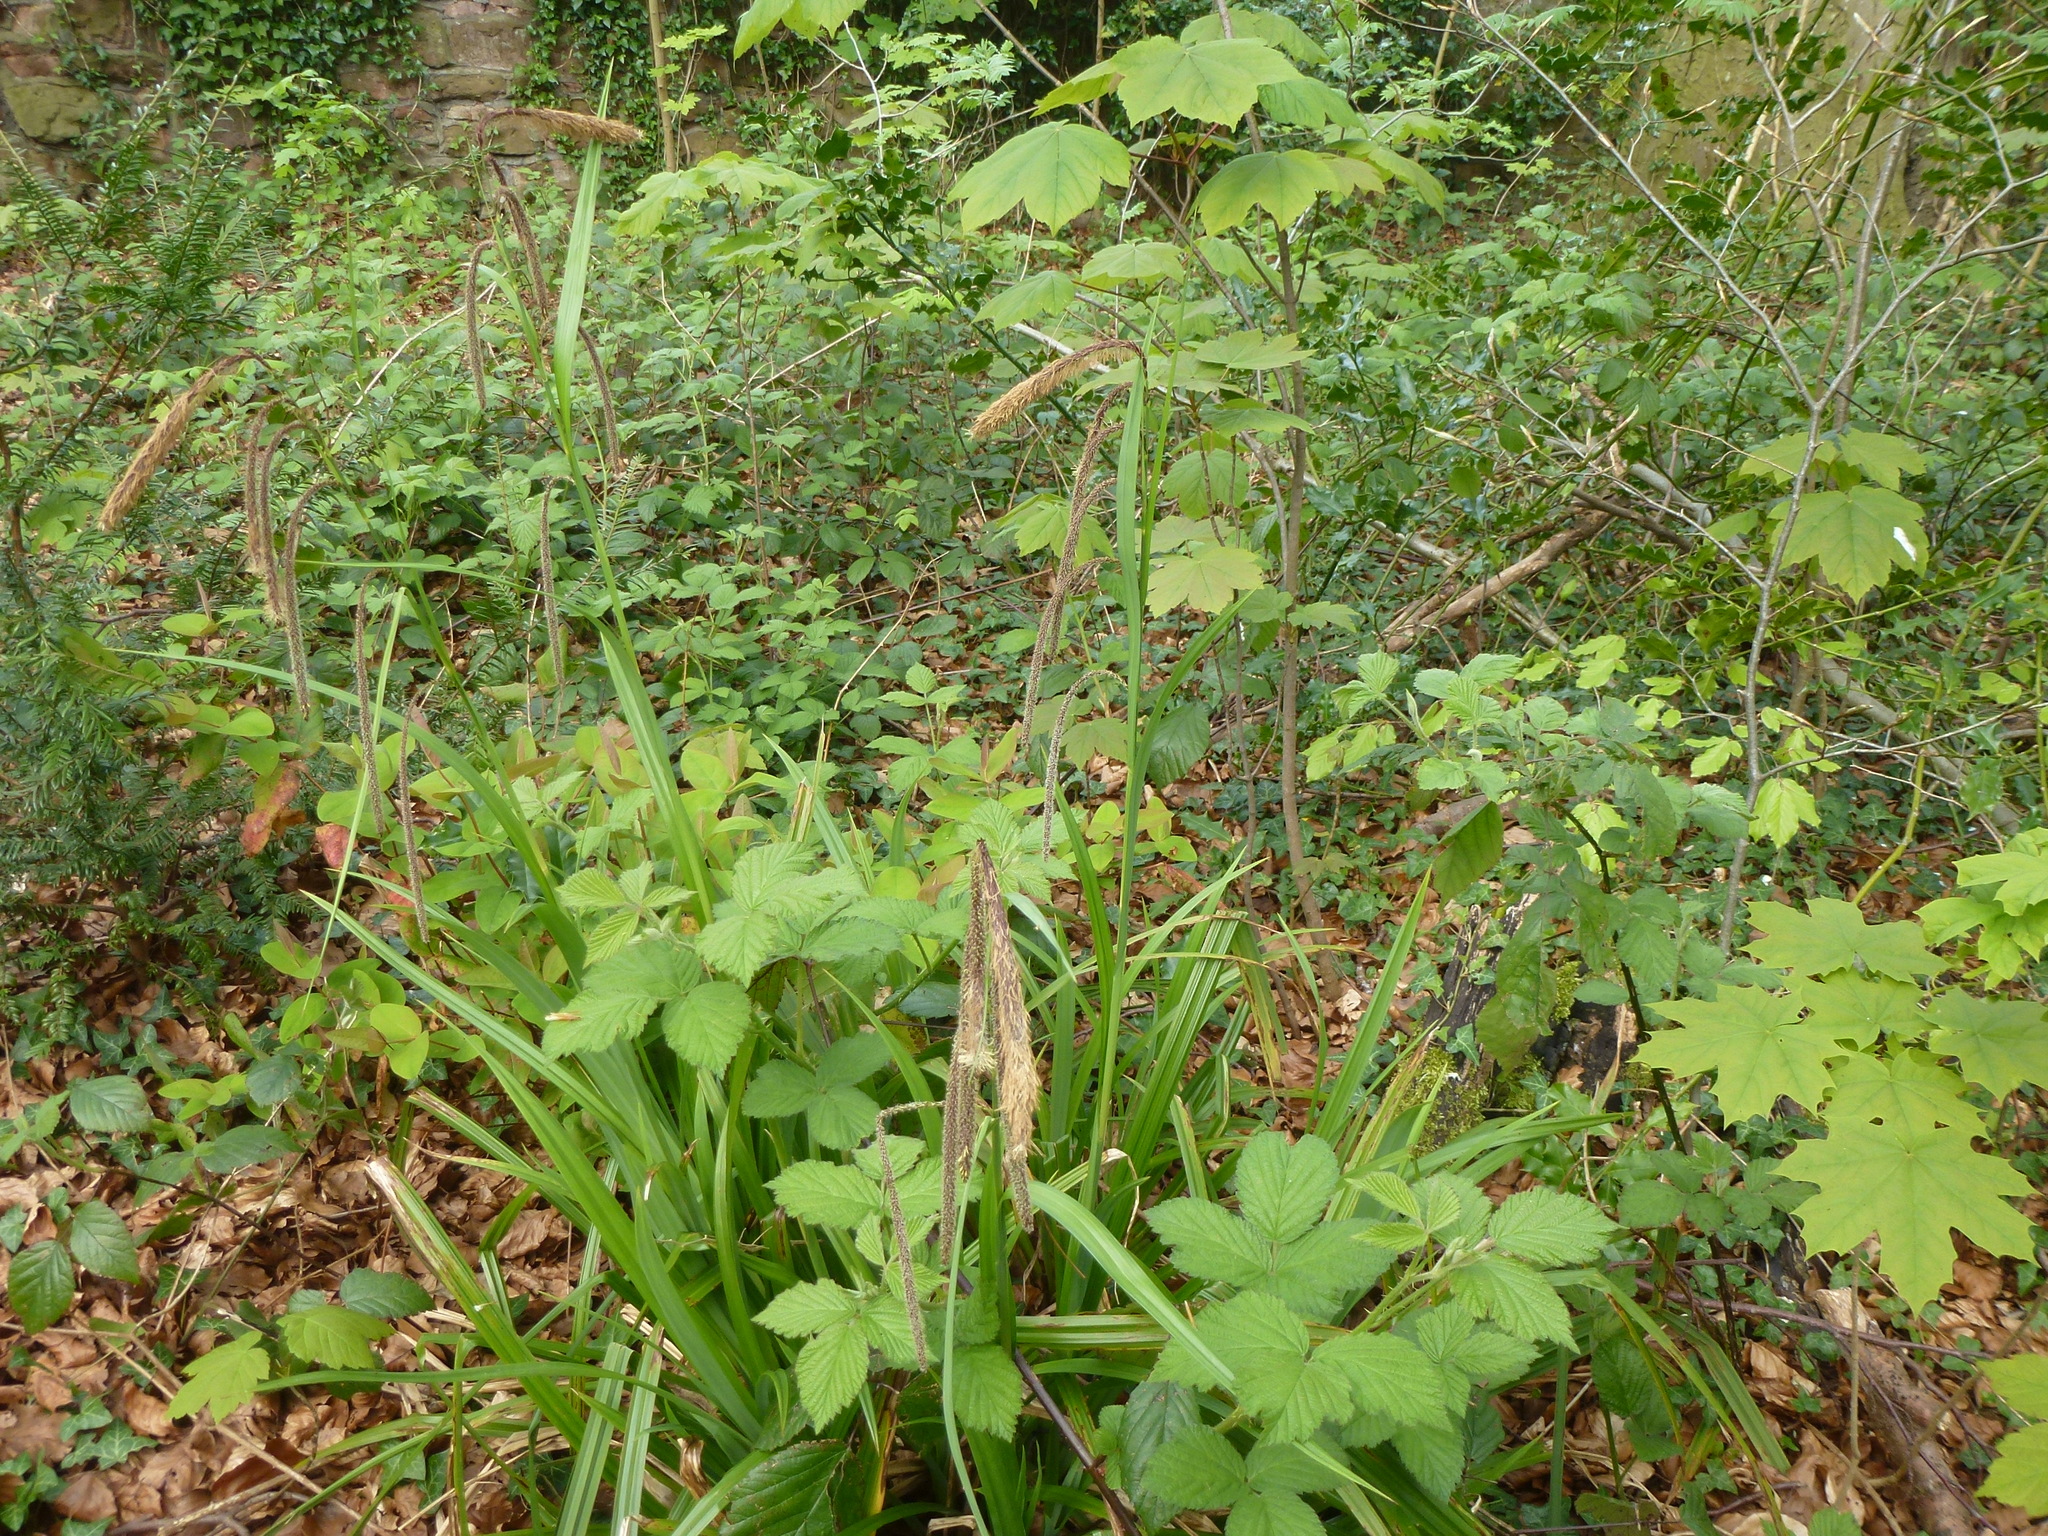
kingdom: Plantae
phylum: Tracheophyta
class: Liliopsida
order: Poales
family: Cyperaceae
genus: Carex
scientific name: Carex pendula
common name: Pendulous sedge
